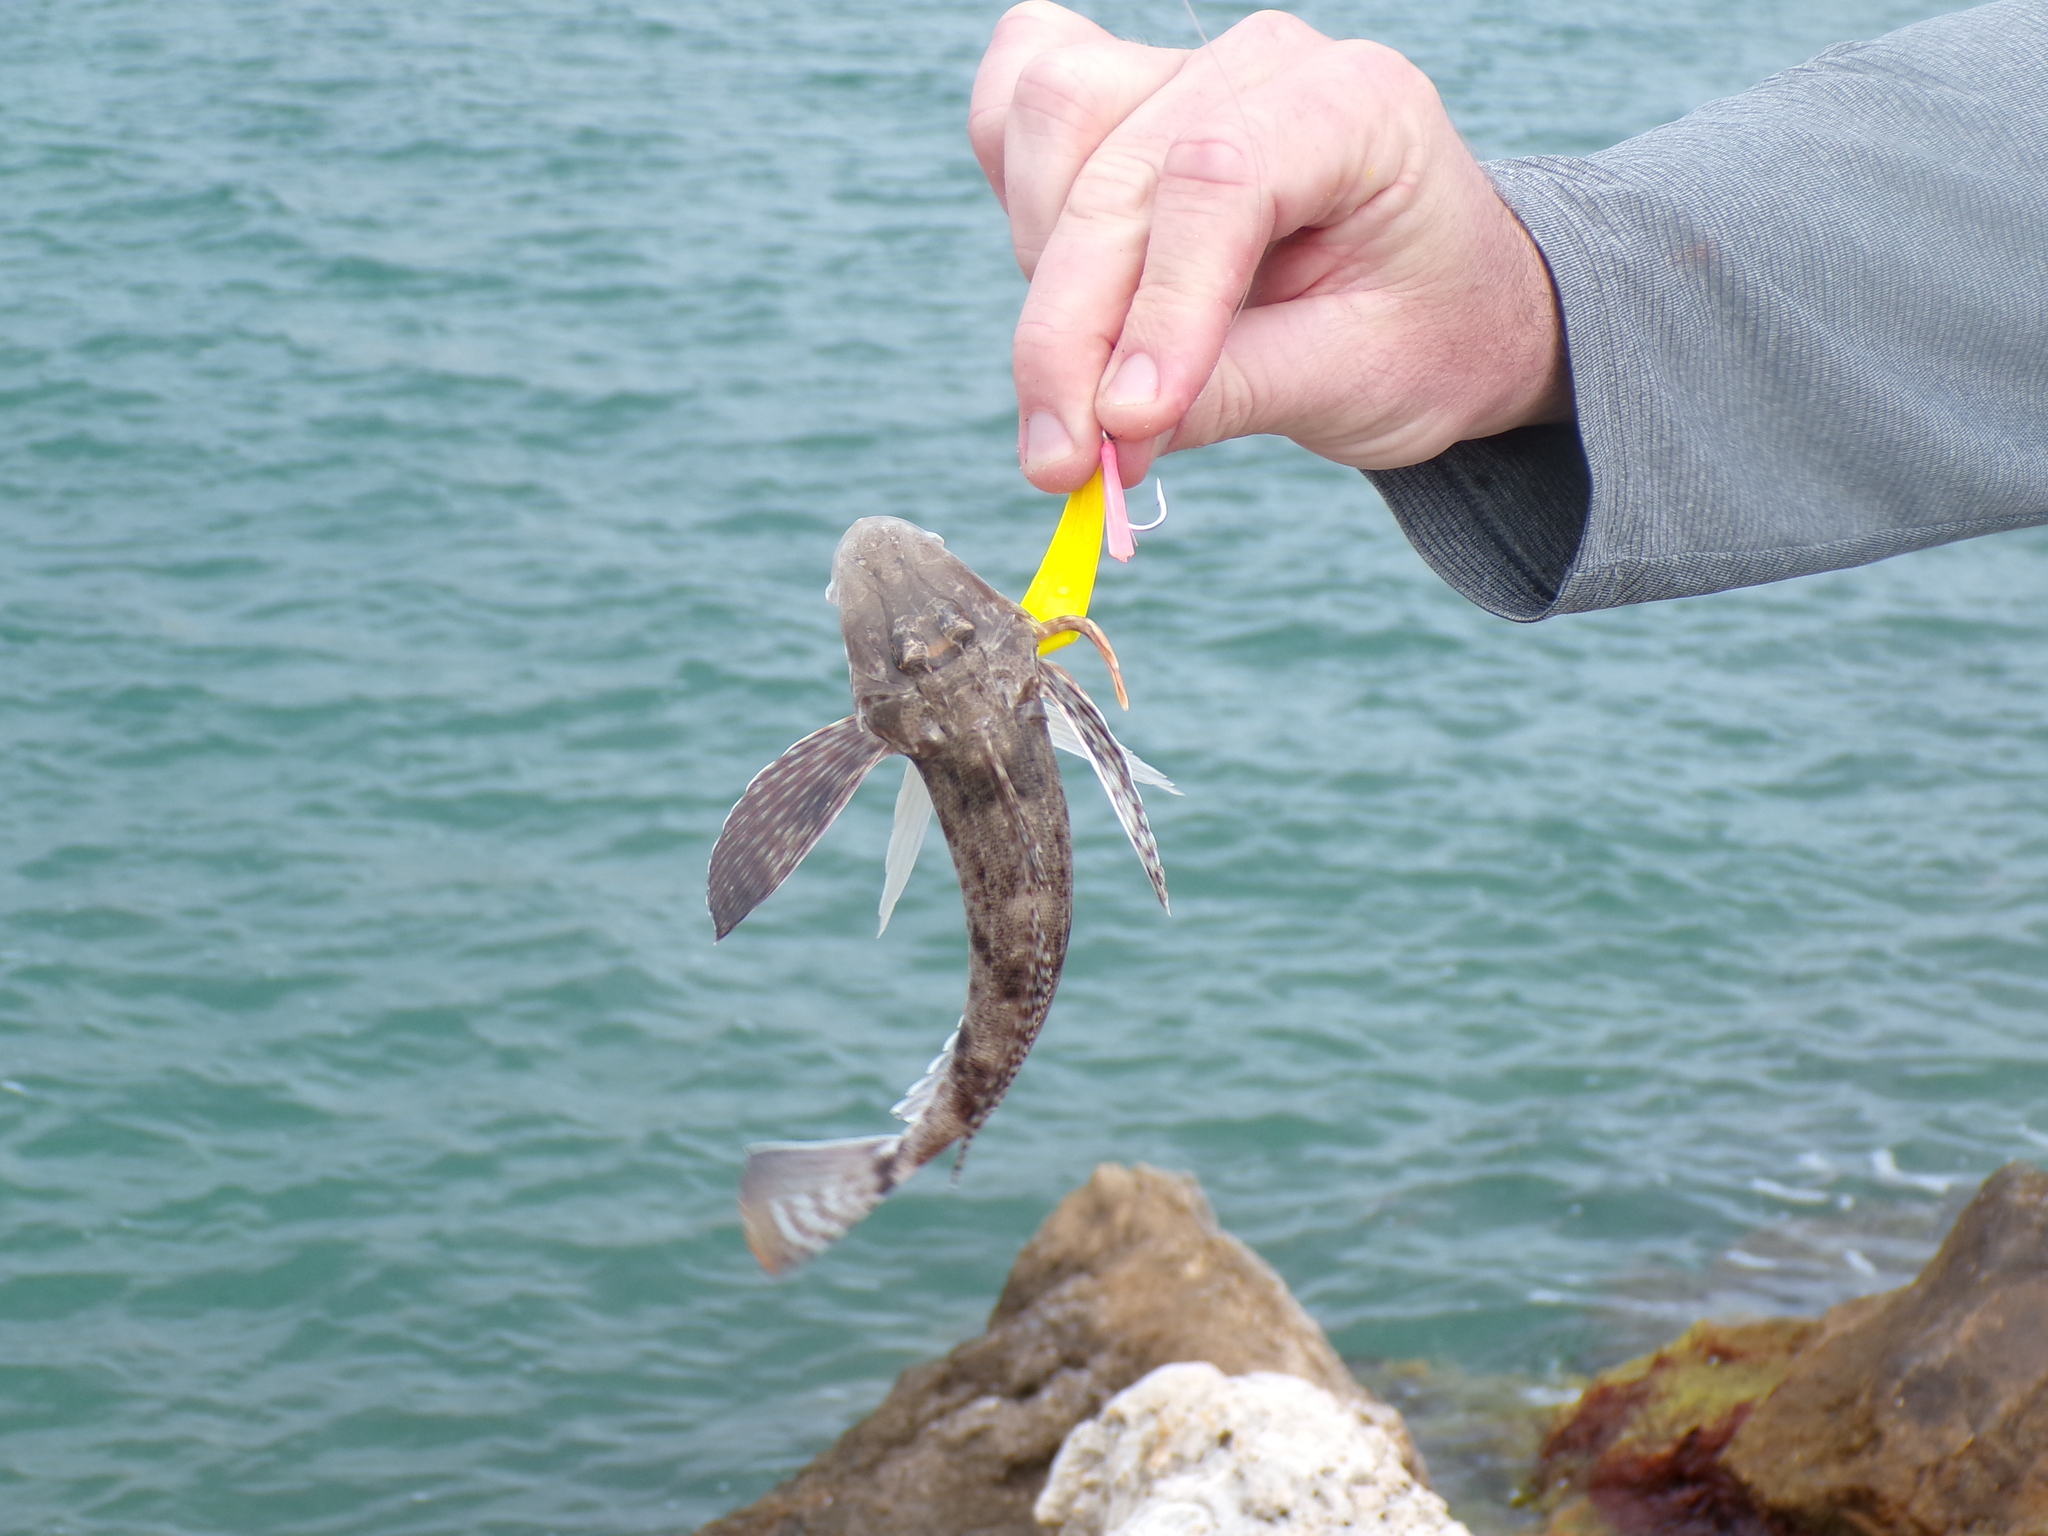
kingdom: Animalia
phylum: Chordata
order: Scorpaeniformes
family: Triglidae
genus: Prionotus
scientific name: Prionotus scitulus
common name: Leopard searobin
